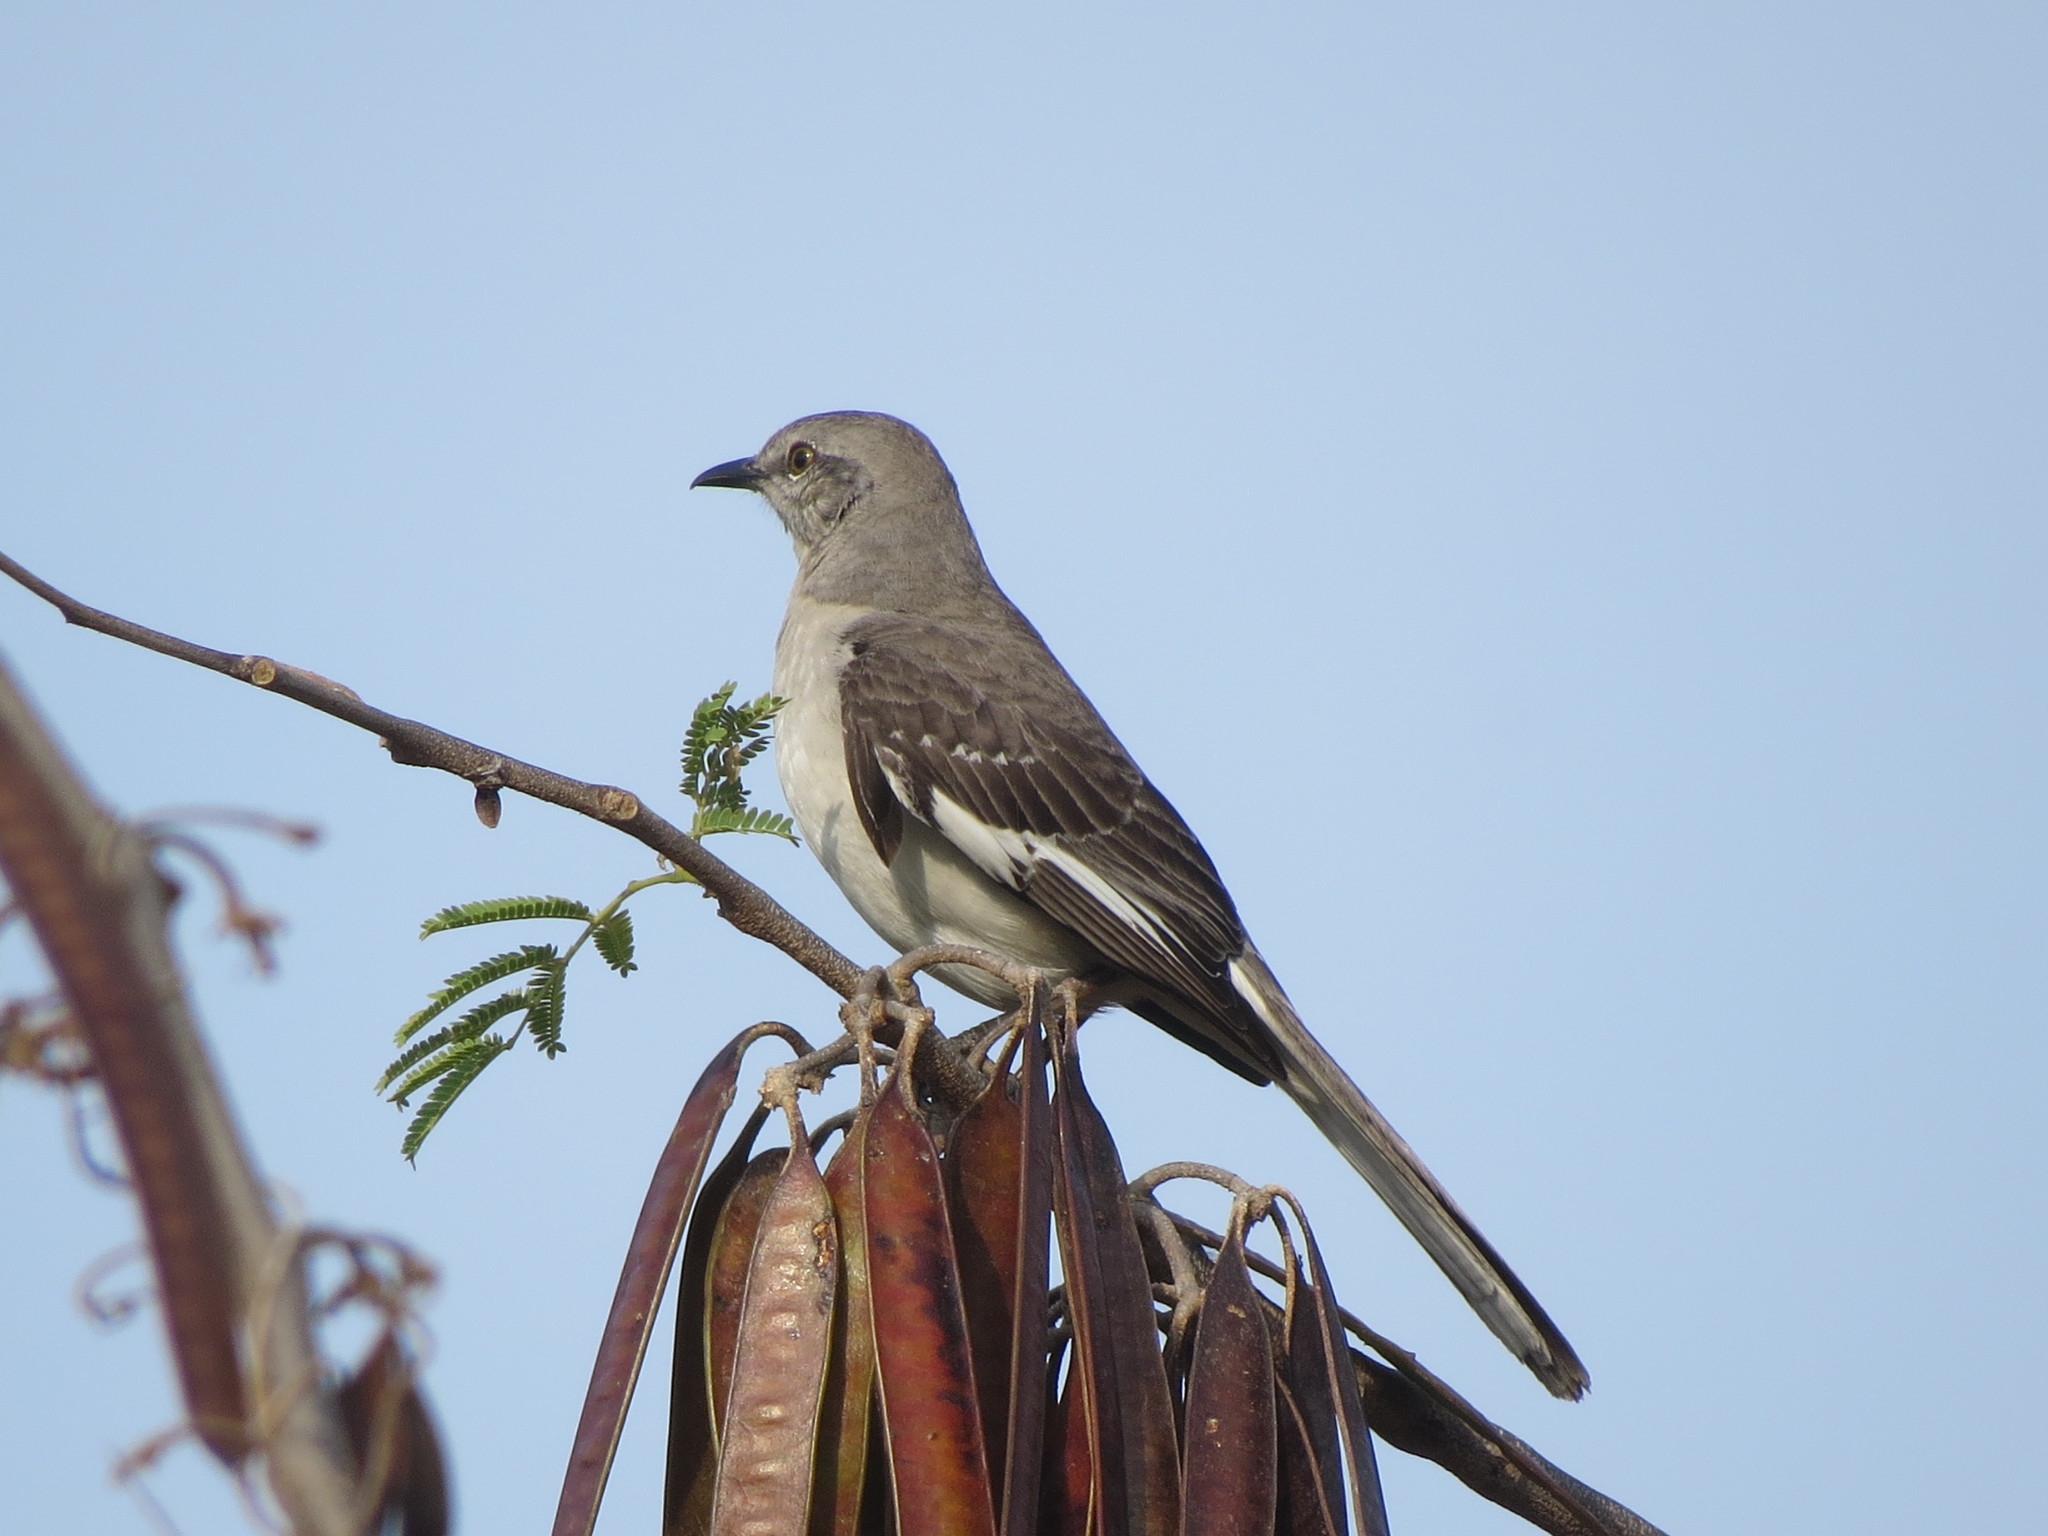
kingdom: Animalia
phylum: Chordata
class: Aves
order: Passeriformes
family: Mimidae
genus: Mimus
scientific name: Mimus polyglottos
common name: Northern mockingbird
